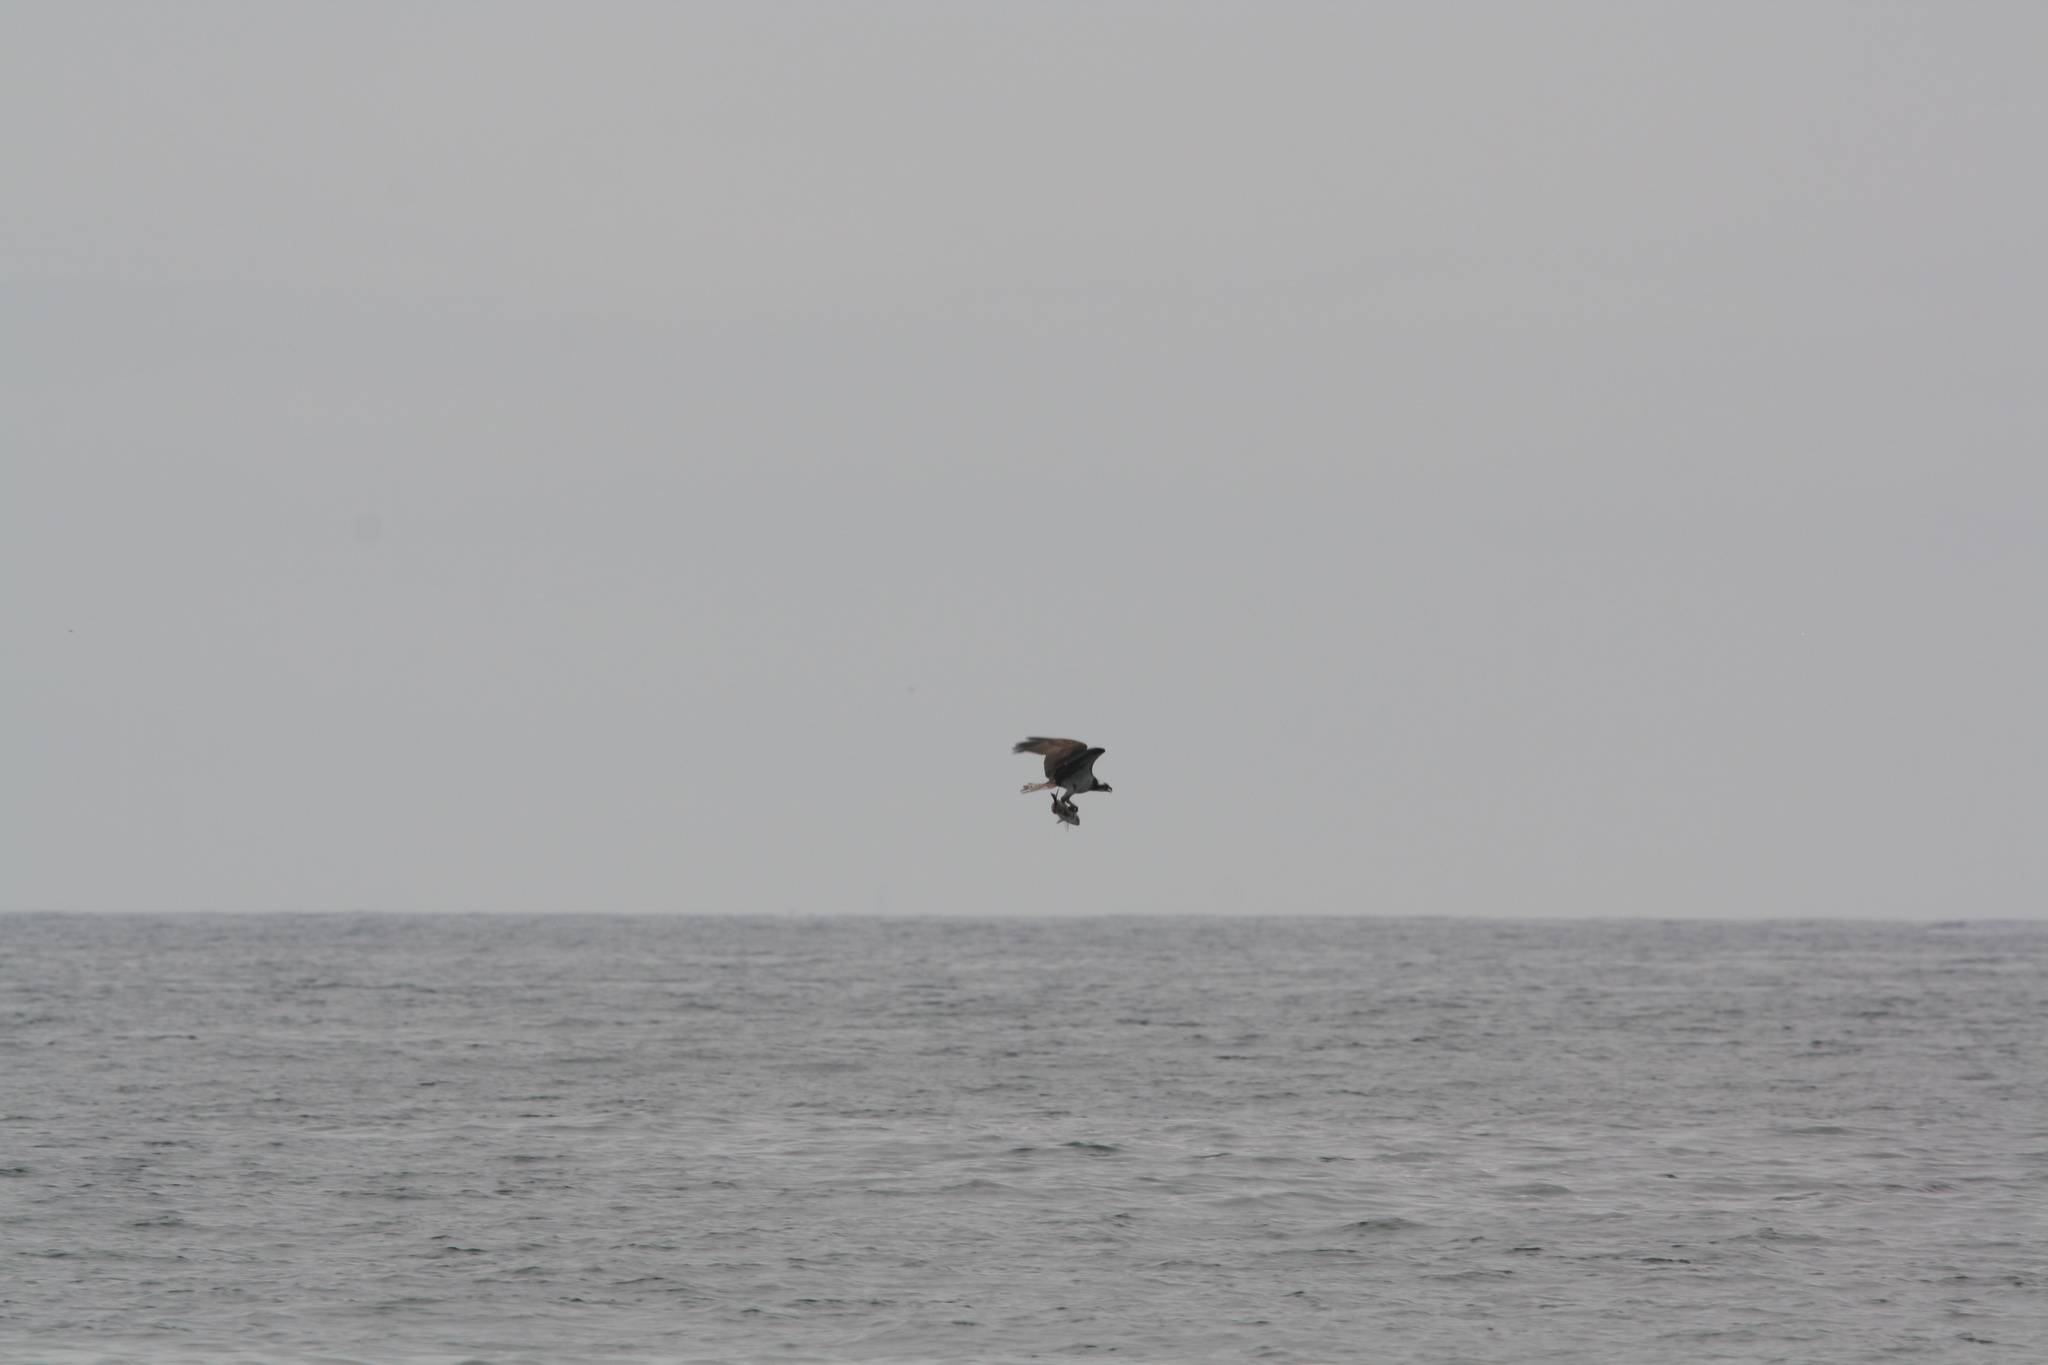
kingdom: Animalia
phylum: Chordata
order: Perciformes
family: Sparidae
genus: Stenotomus
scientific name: Stenotomus chrysops
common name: Scup
